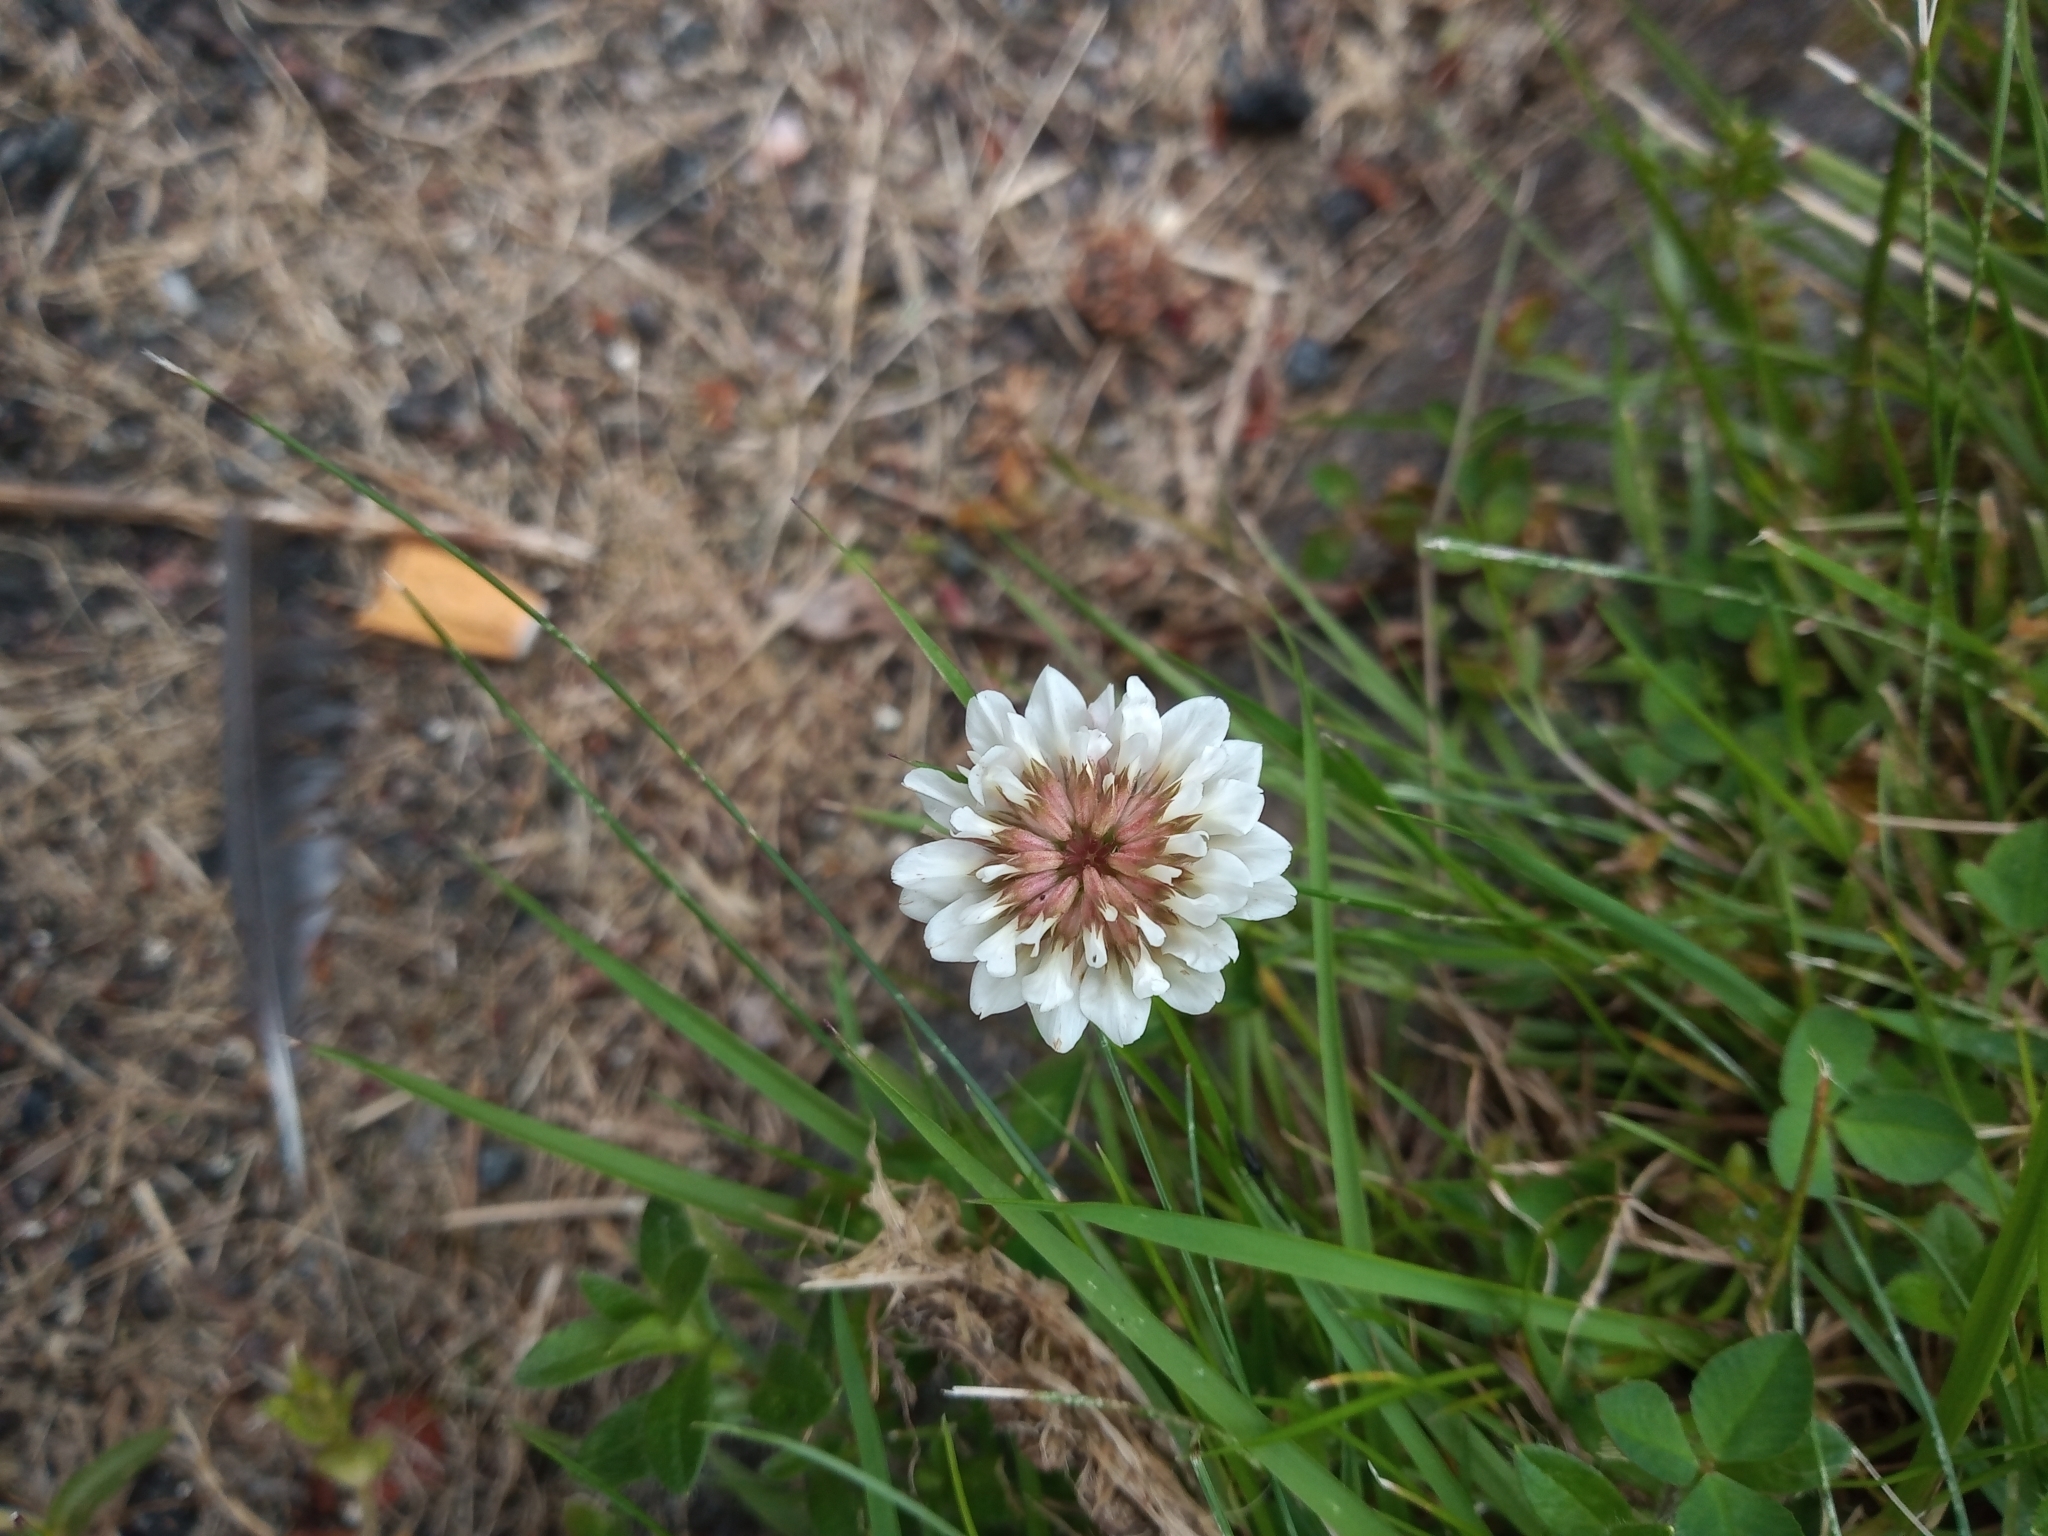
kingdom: Plantae
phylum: Tracheophyta
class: Magnoliopsida
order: Fabales
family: Fabaceae
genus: Trifolium
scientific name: Trifolium repens
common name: White clover
